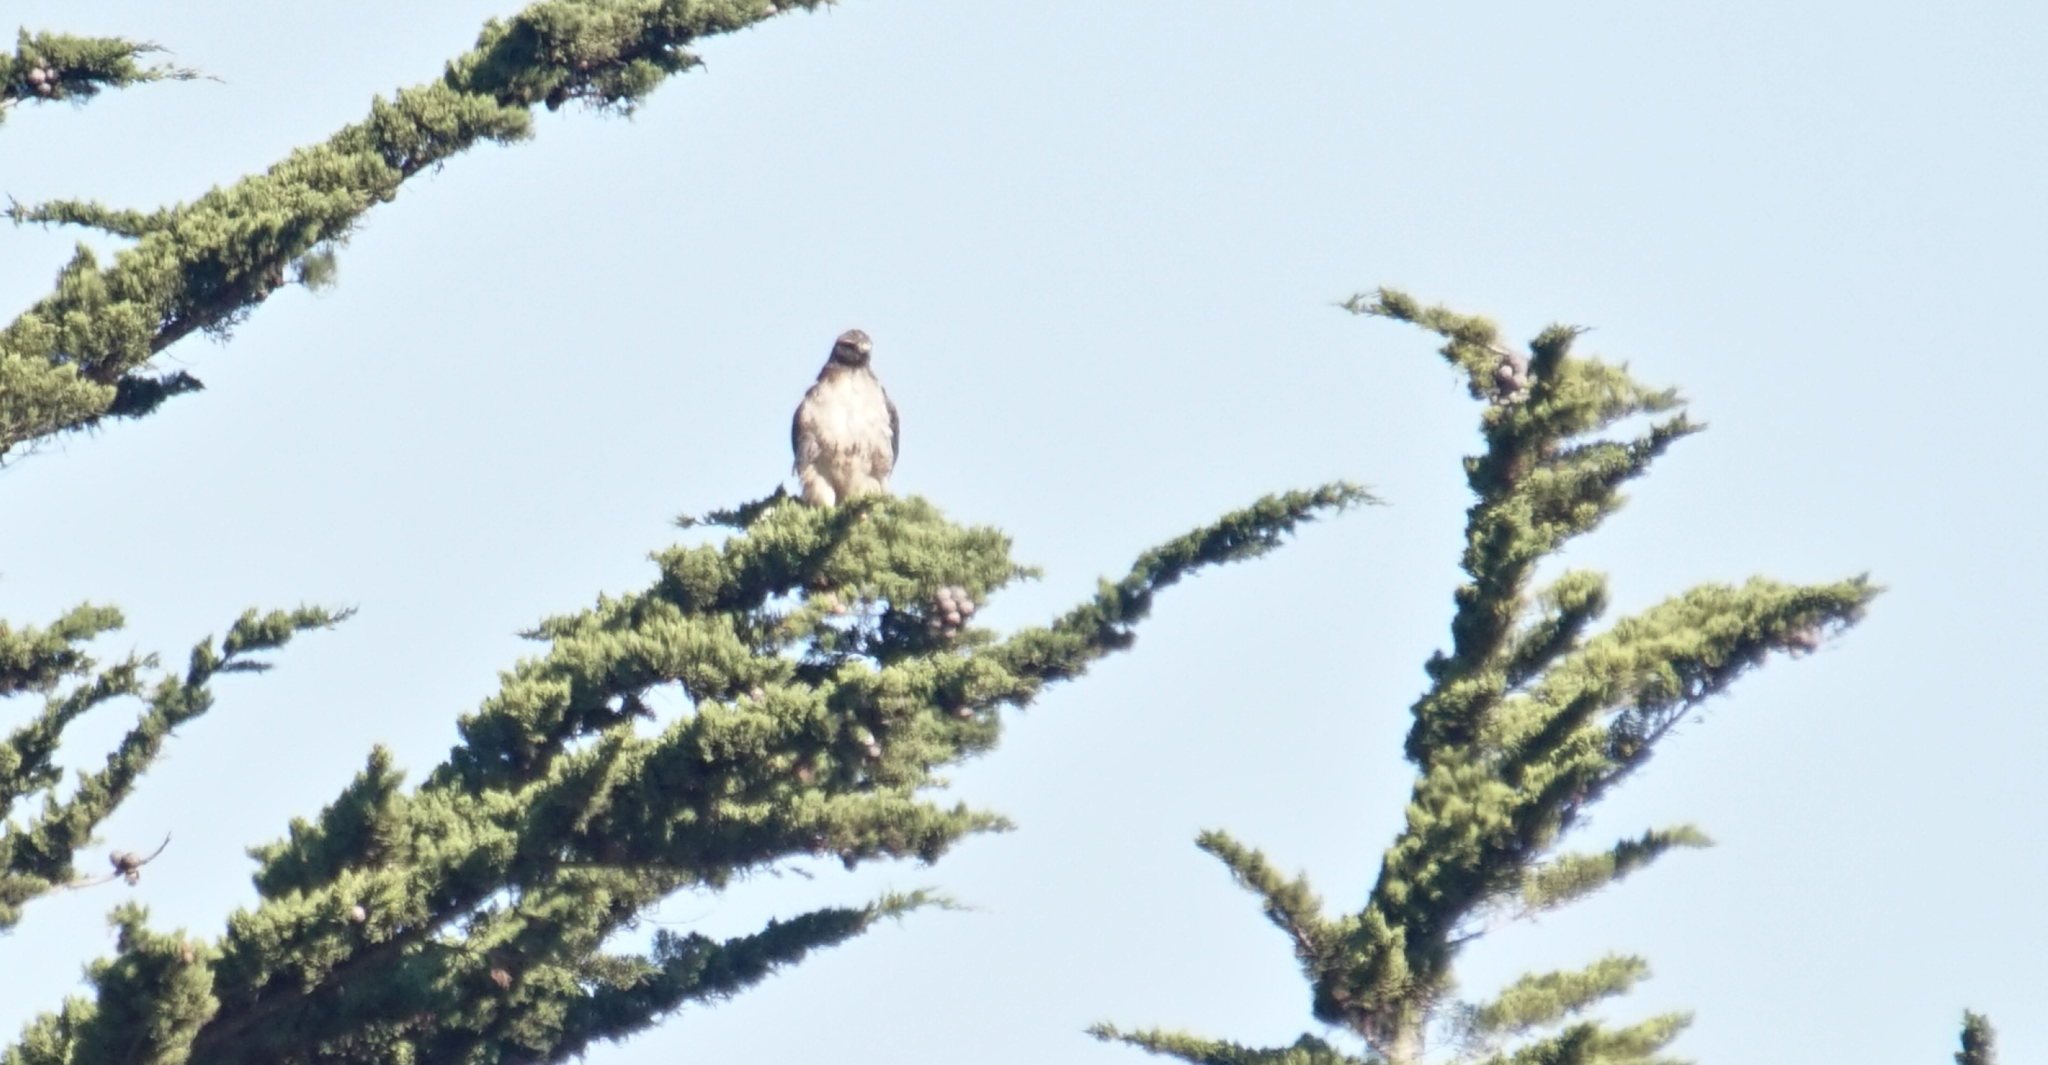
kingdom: Animalia
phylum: Chordata
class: Aves
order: Accipitriformes
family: Accipitridae
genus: Buteo
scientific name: Buteo jamaicensis
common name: Red-tailed hawk
